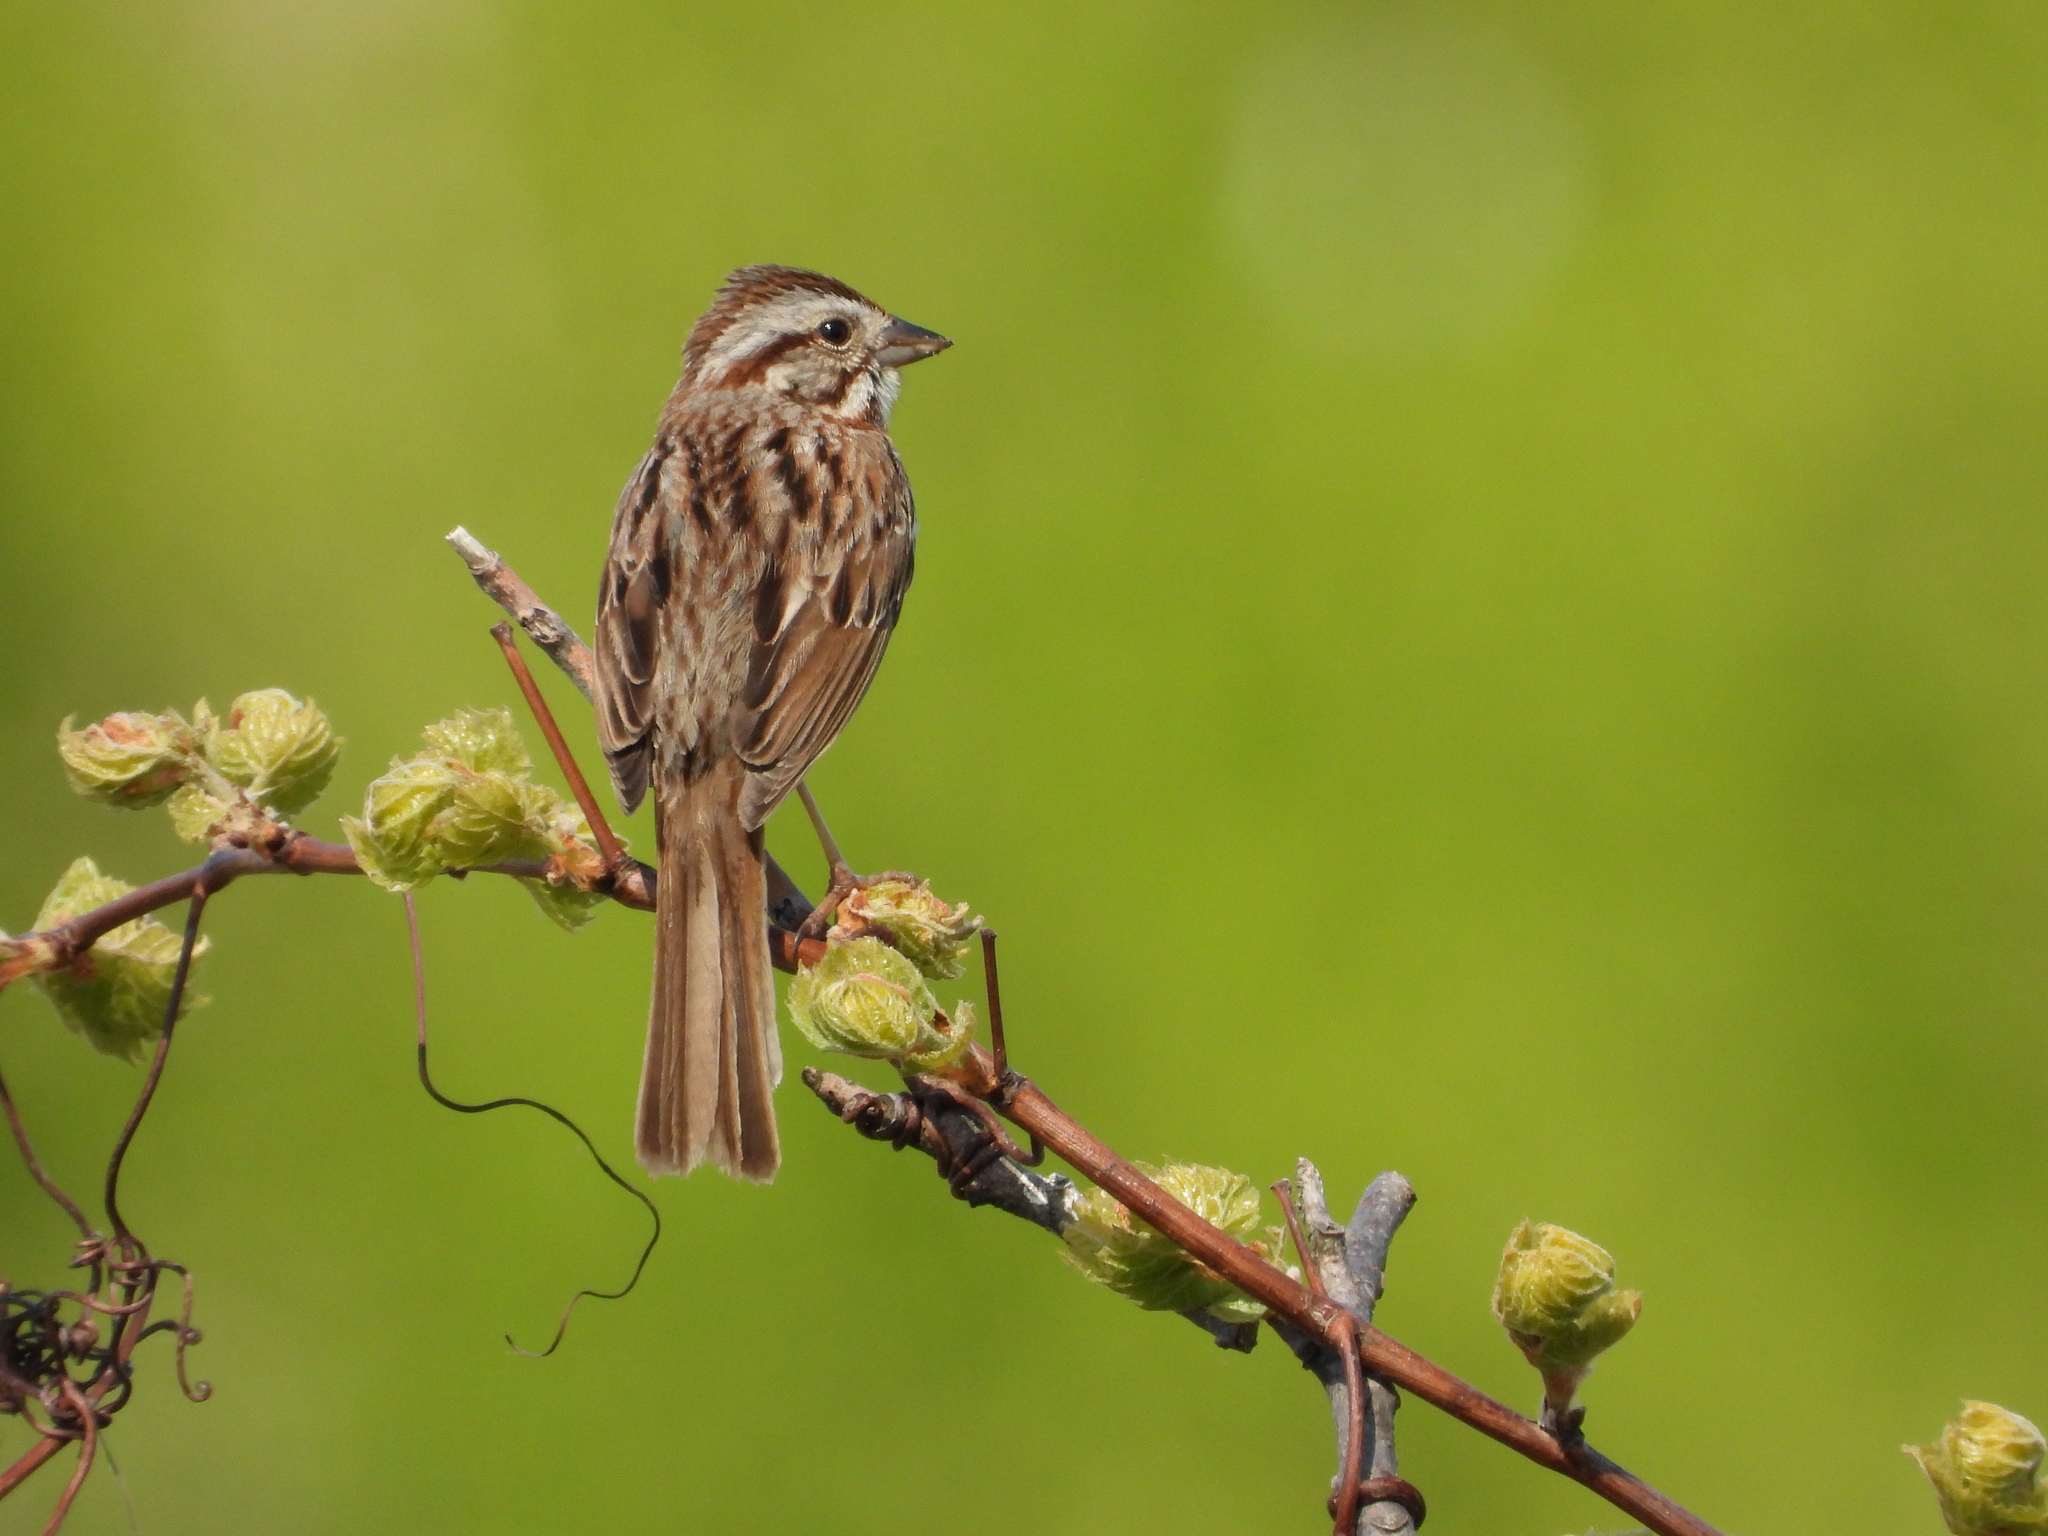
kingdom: Animalia
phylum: Chordata
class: Aves
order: Passeriformes
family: Passerellidae
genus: Melospiza
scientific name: Melospiza melodia
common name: Song sparrow
